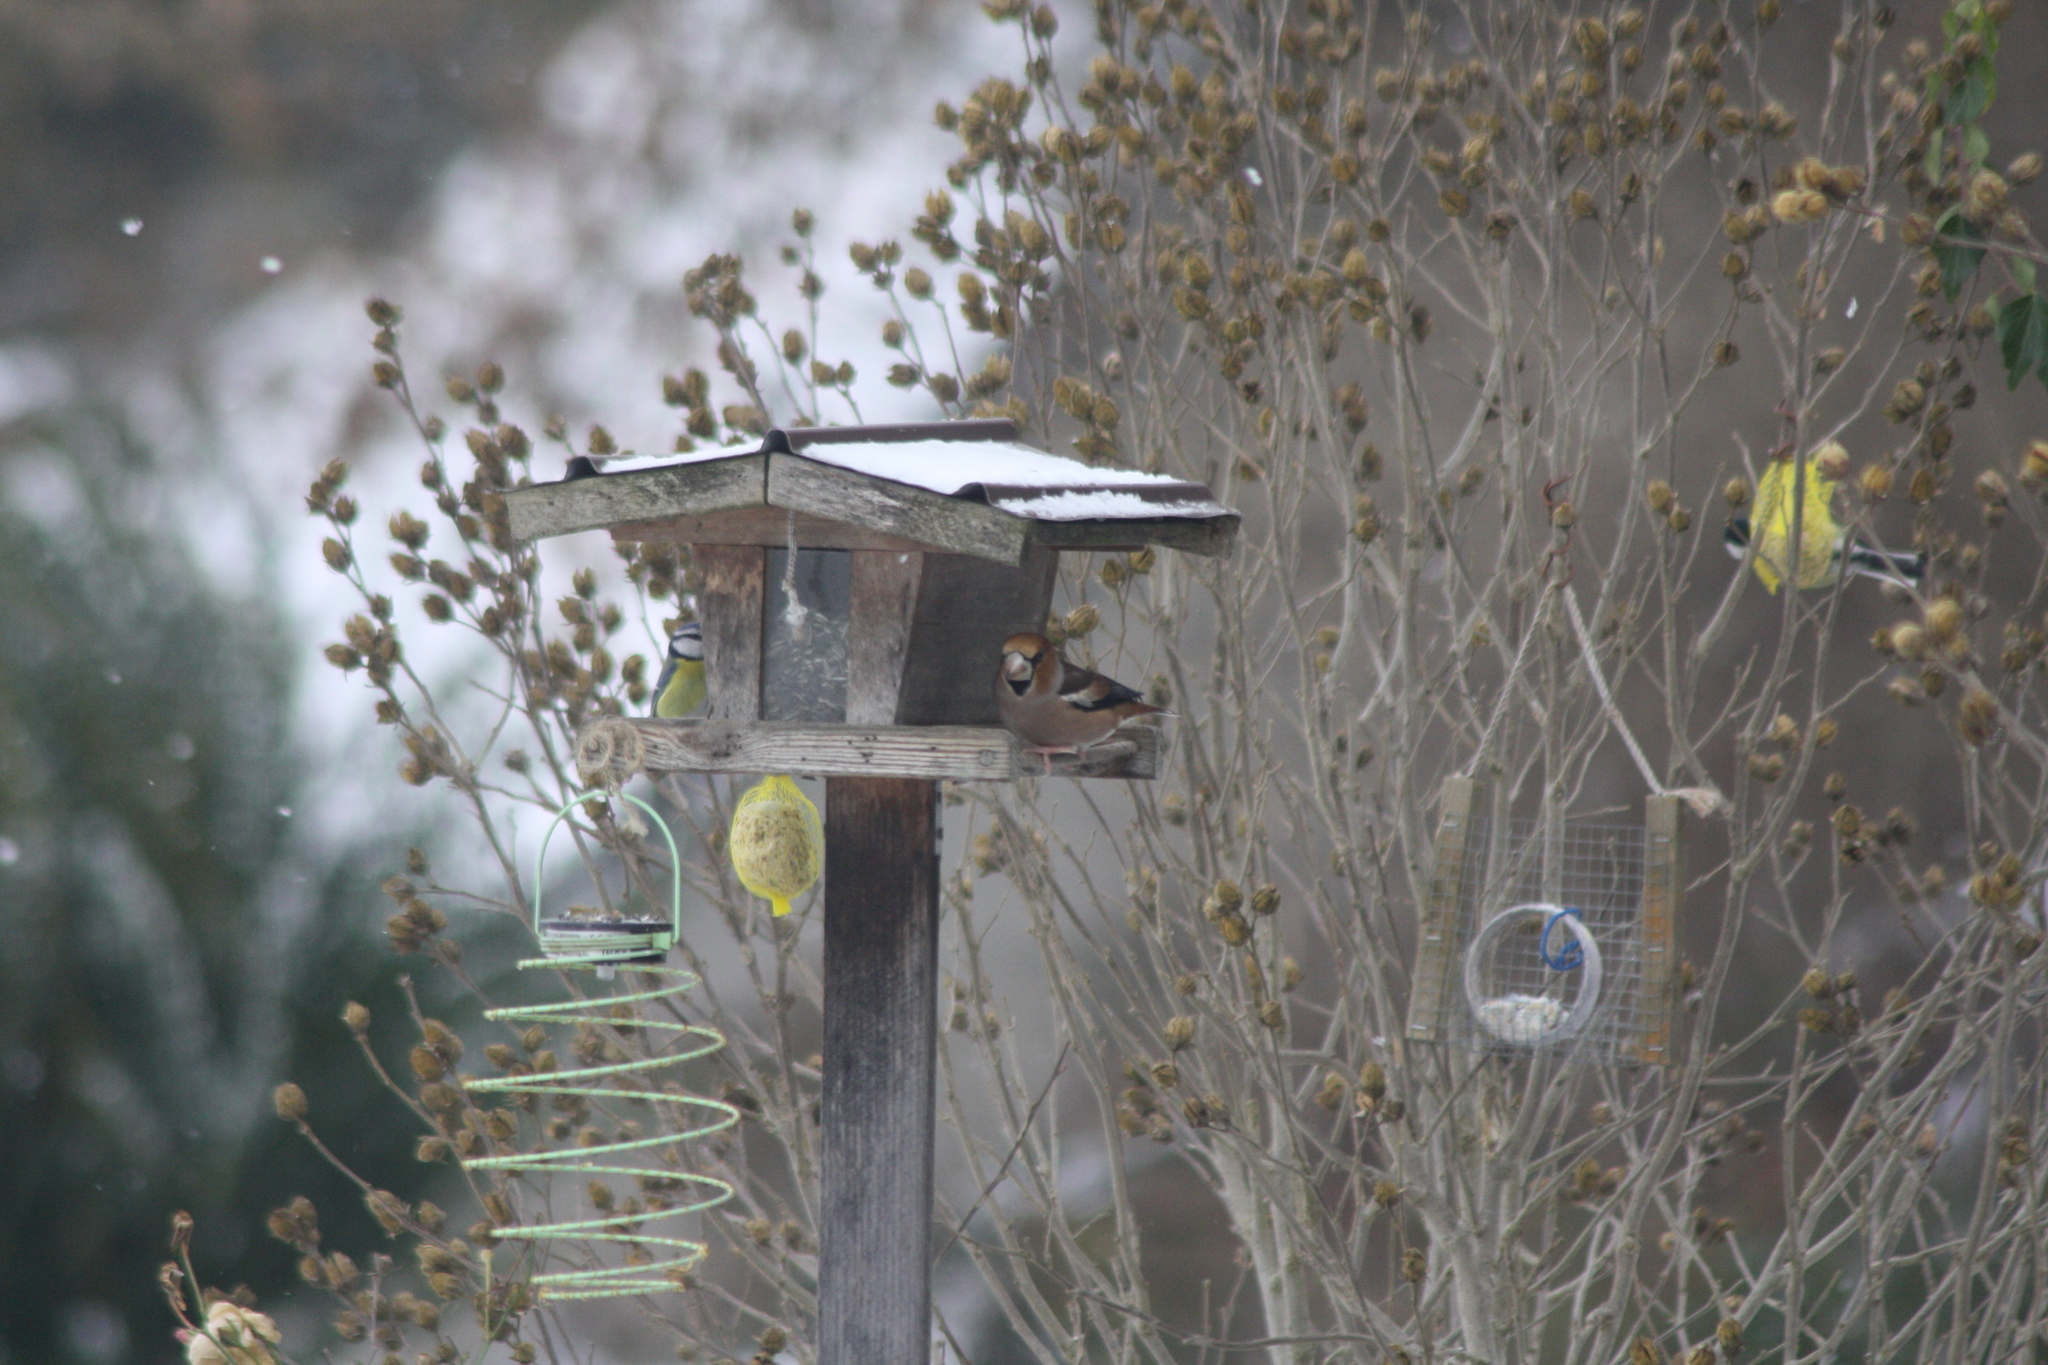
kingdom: Animalia
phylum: Chordata
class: Aves
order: Passeriformes
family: Fringillidae
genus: Coccothraustes
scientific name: Coccothraustes coccothraustes
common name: Hawfinch
